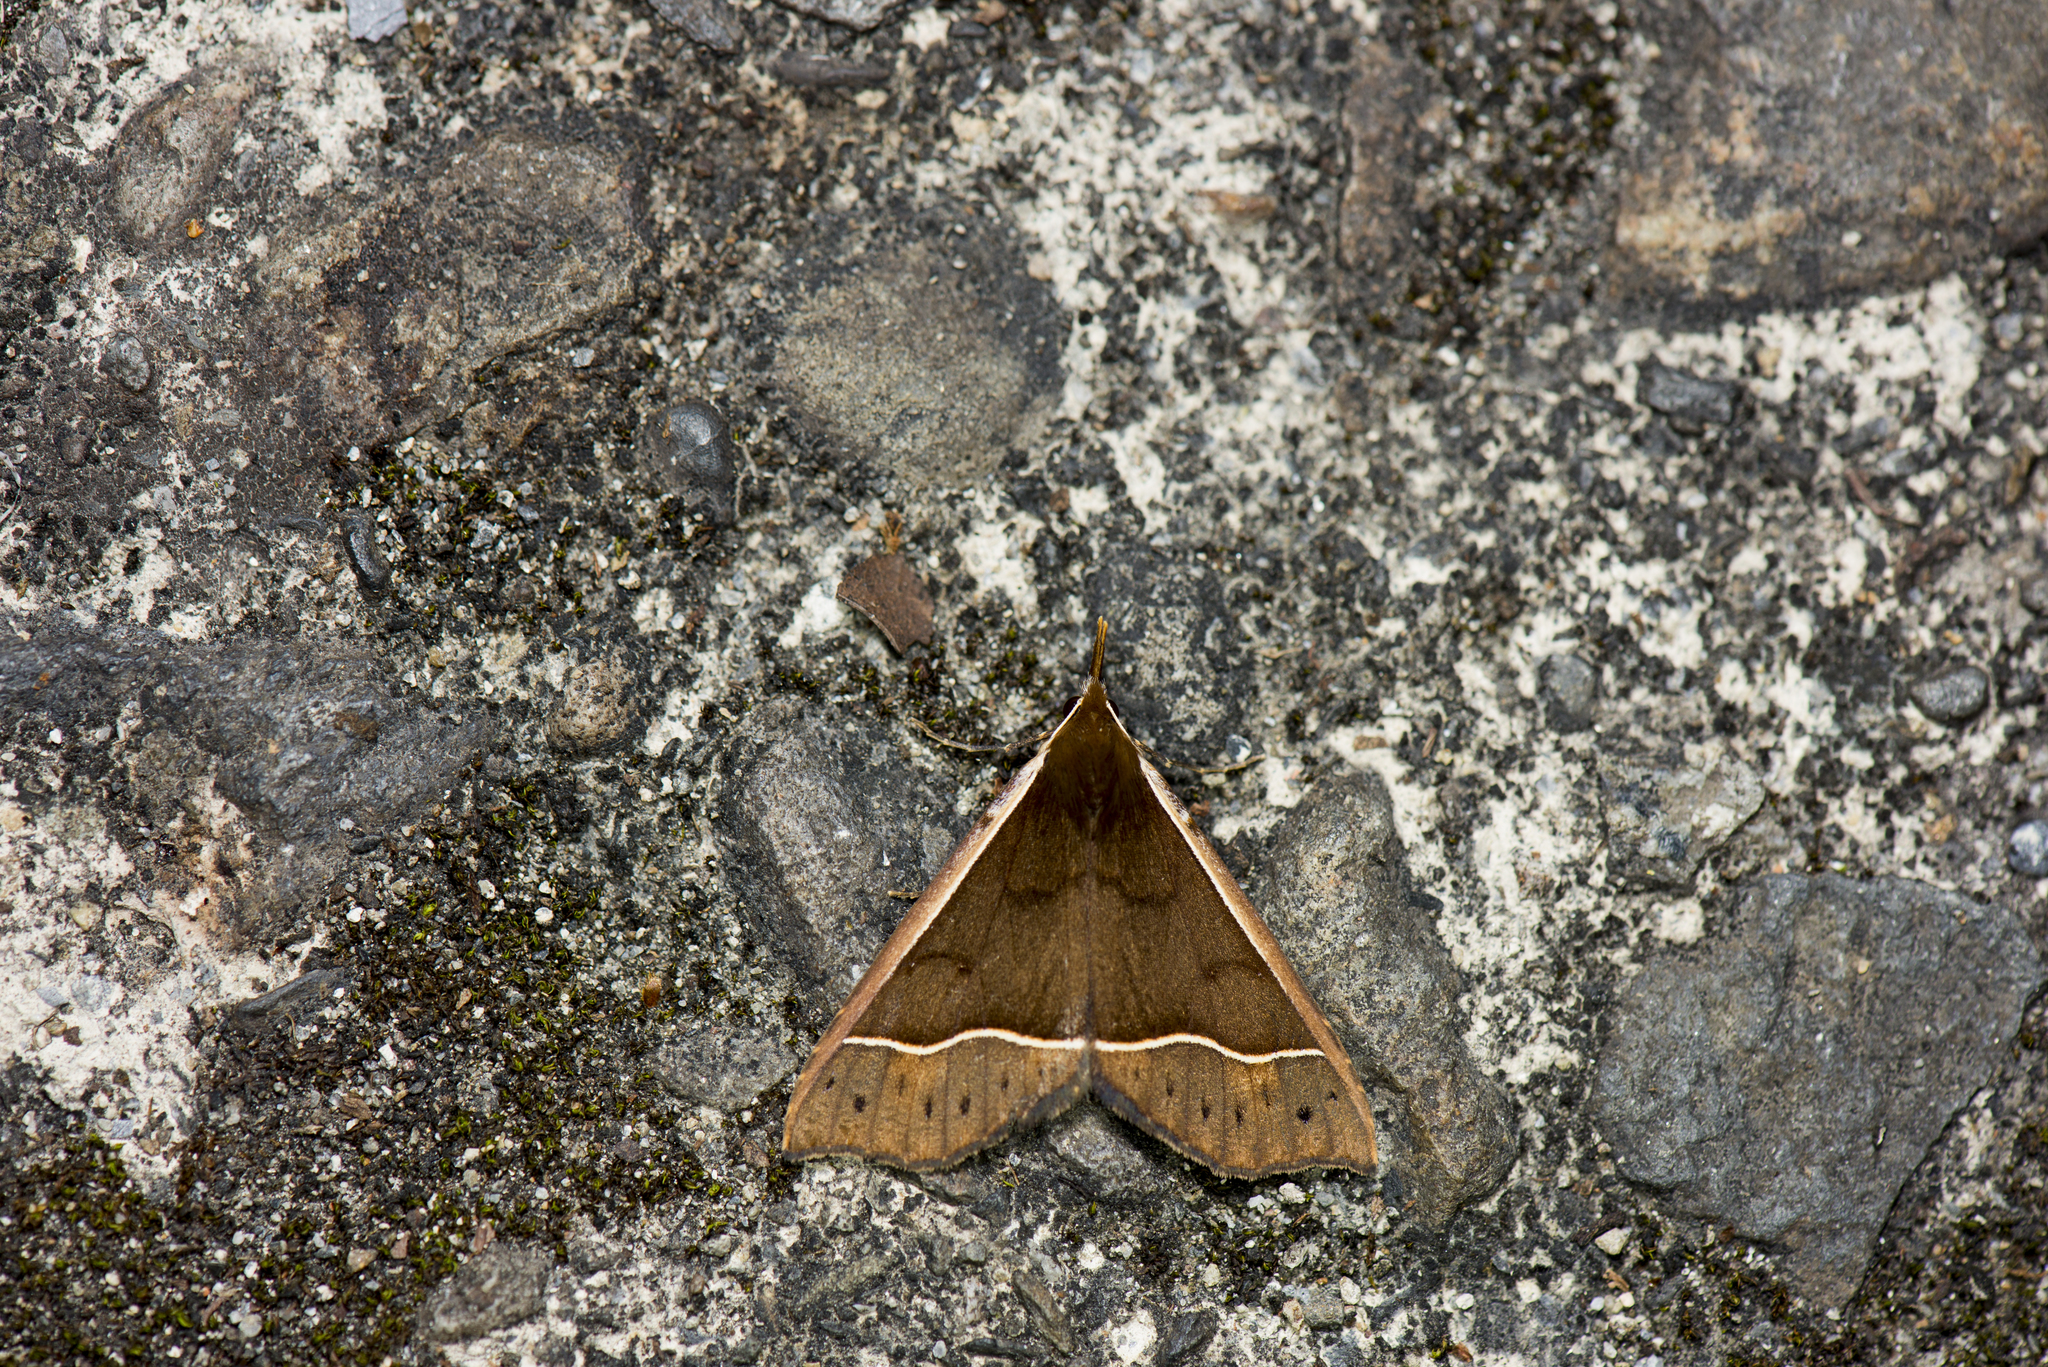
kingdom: Animalia
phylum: Arthropoda
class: Insecta
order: Lepidoptera
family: Erebidae
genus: Anoratha
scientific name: Anoratha sinuosa
